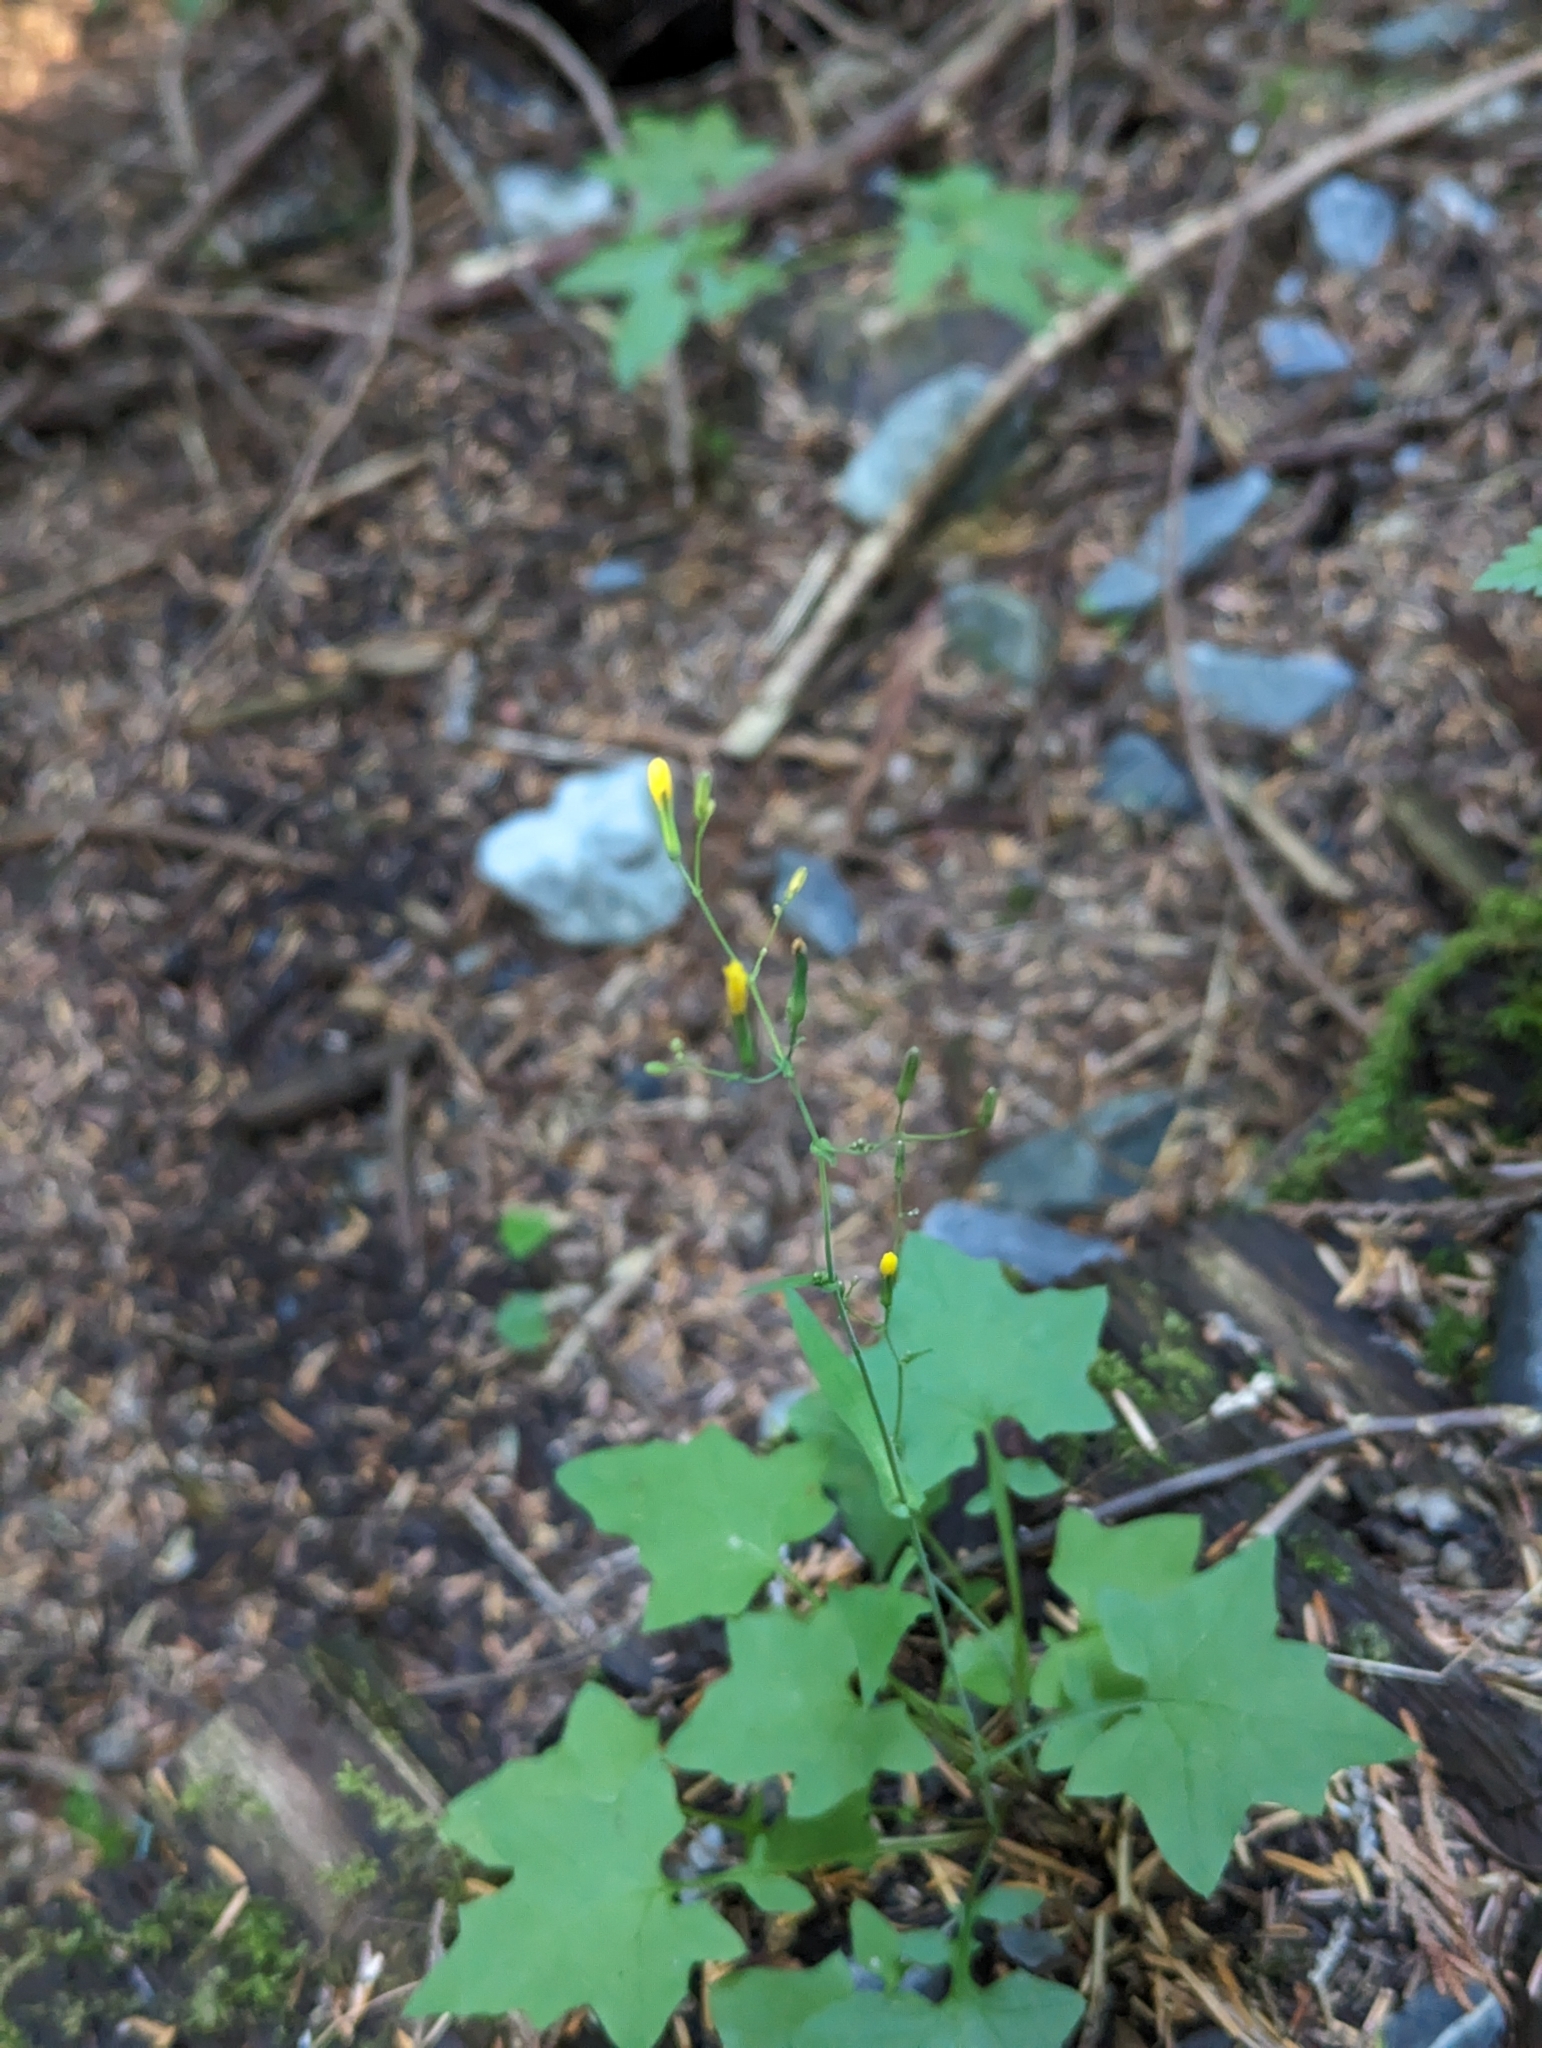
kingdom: Plantae
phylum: Tracheophyta
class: Magnoliopsida
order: Asterales
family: Asteraceae
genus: Mycelis
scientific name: Mycelis muralis
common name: Wall lettuce
